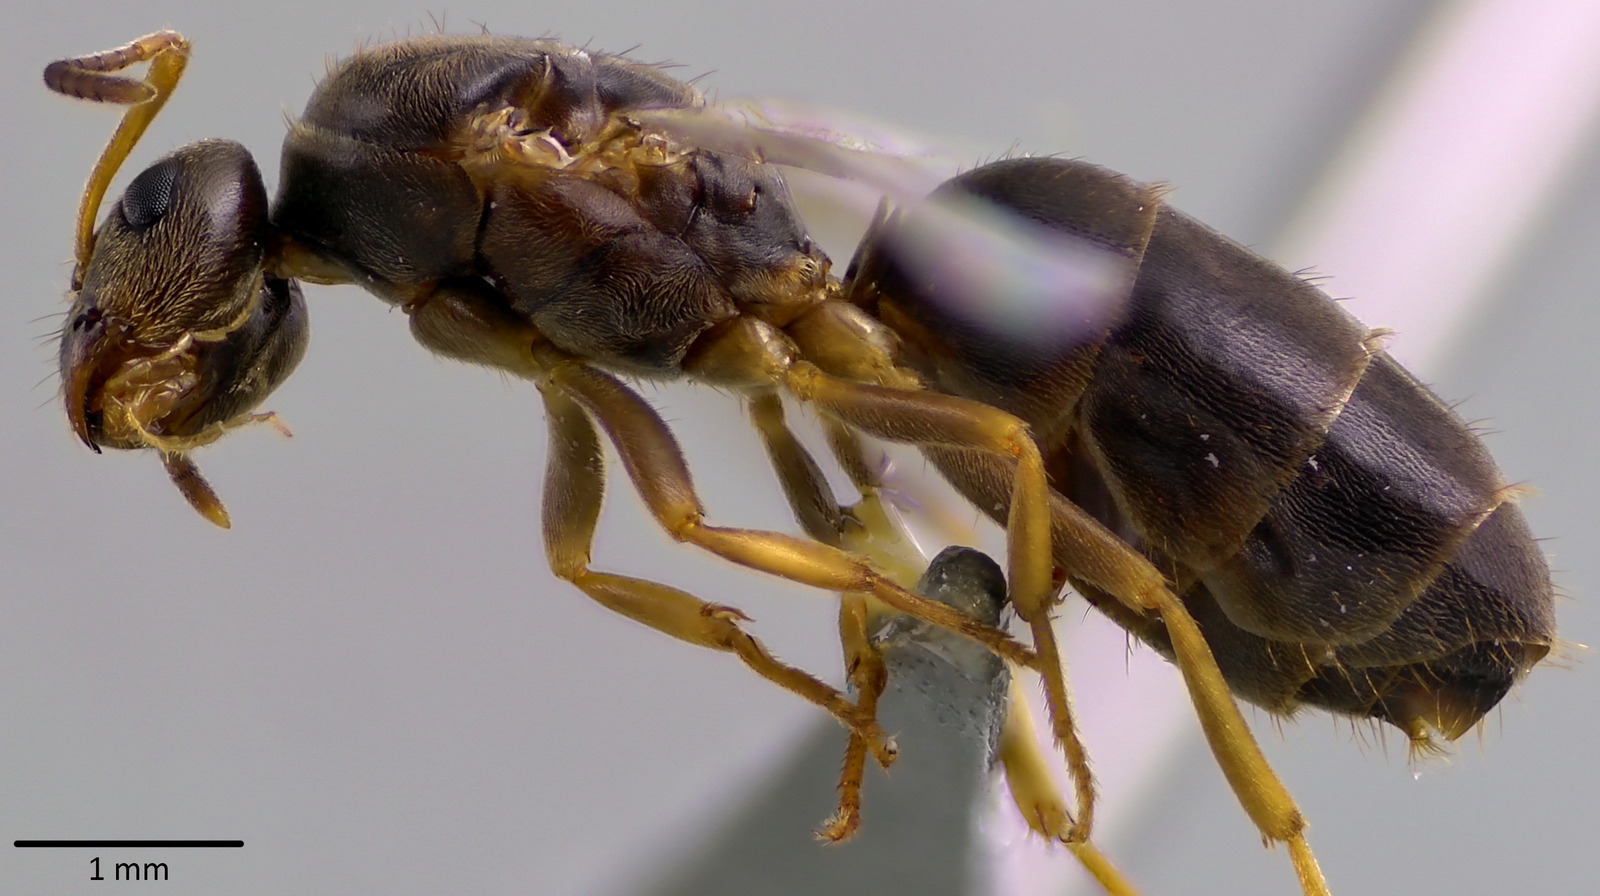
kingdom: Animalia
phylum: Arthropoda
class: Insecta
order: Hymenoptera
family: Formicidae
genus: Lasius
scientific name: Lasius americanus
